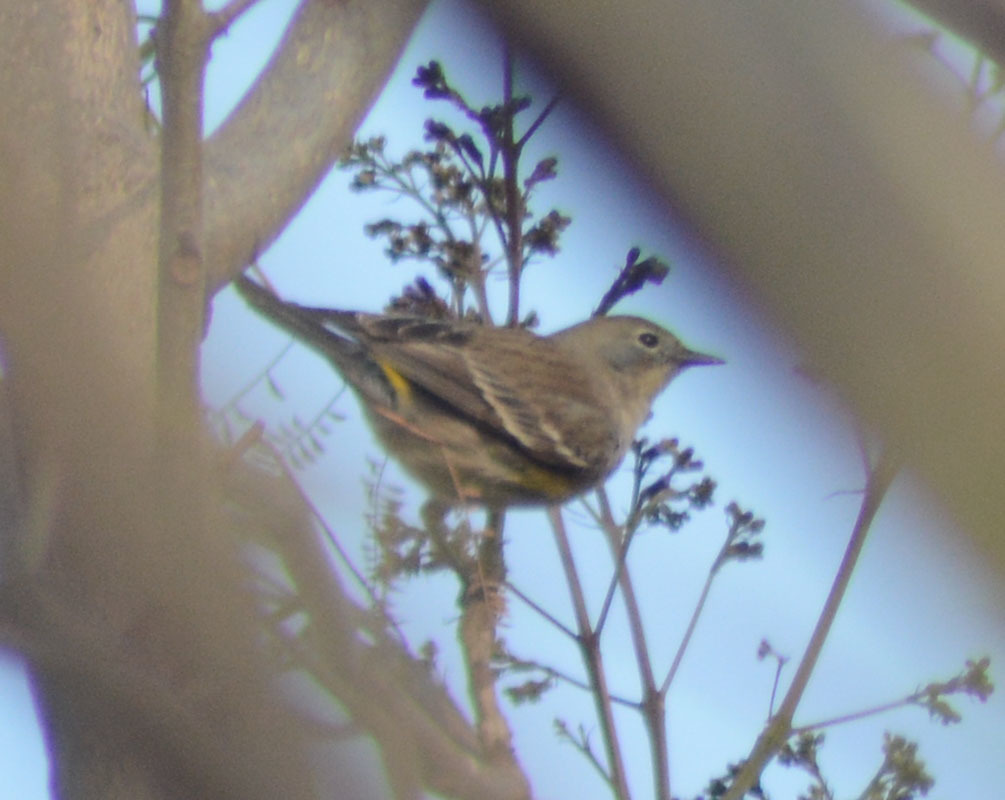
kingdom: Animalia
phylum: Chordata
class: Aves
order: Passeriformes
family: Parulidae
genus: Setophaga
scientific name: Setophaga coronata
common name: Myrtle warbler
